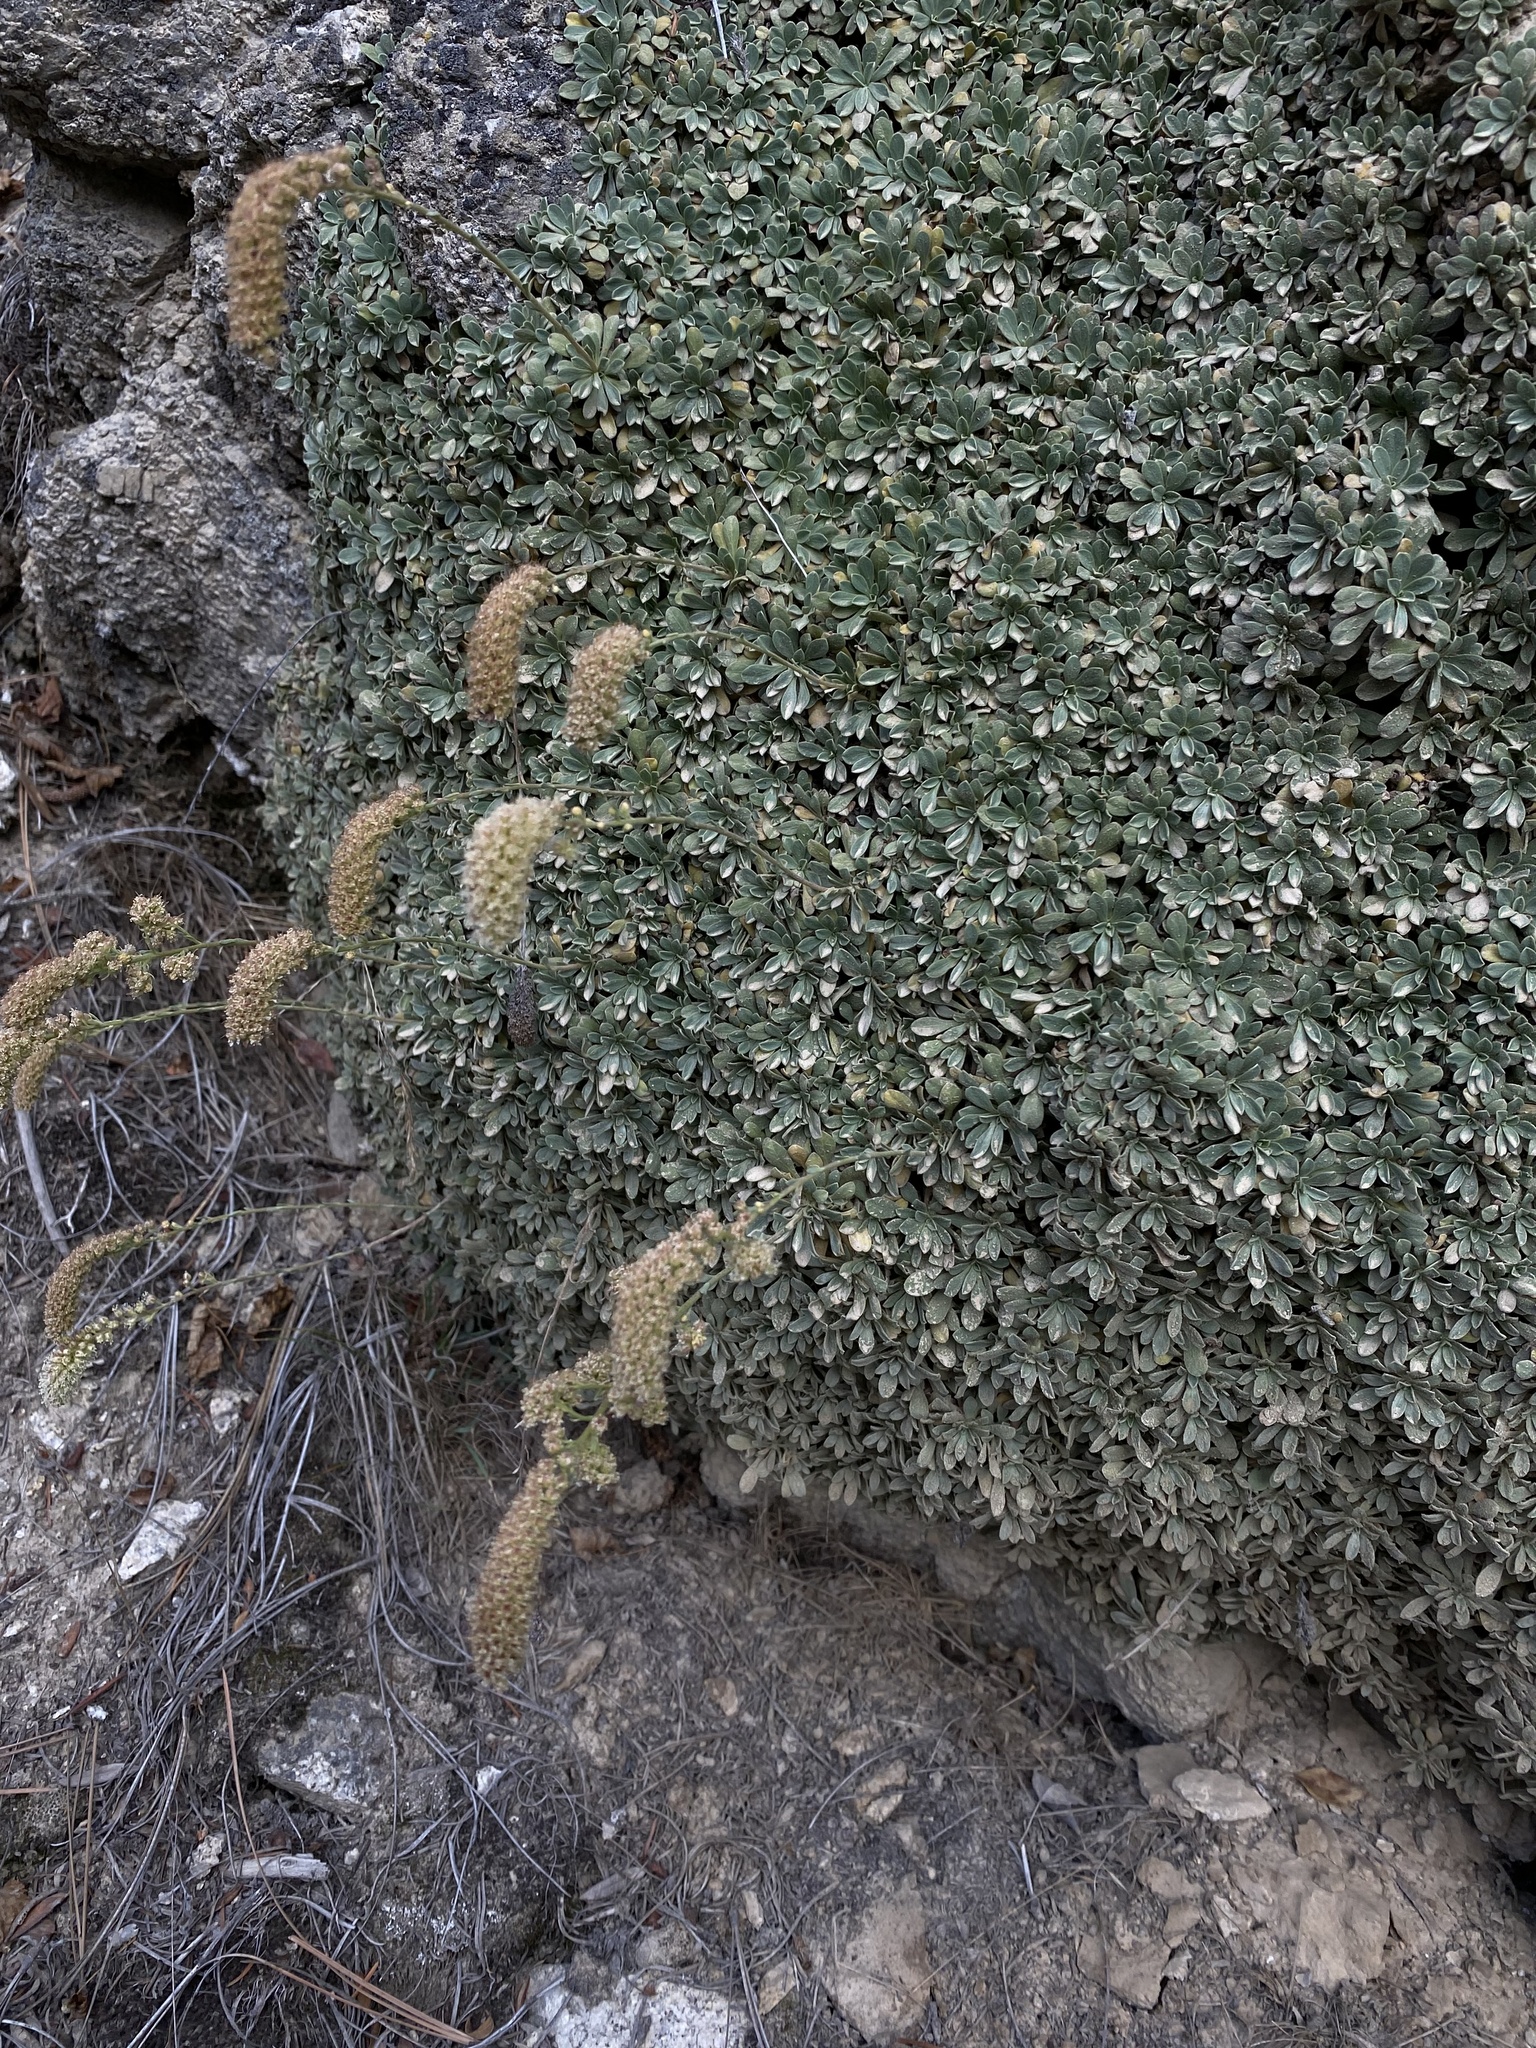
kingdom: Plantae
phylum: Tracheophyta
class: Magnoliopsida
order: Rosales
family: Rosaceae
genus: Petrophytum
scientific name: Petrophytum caespitosum
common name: Mat rockspirea
